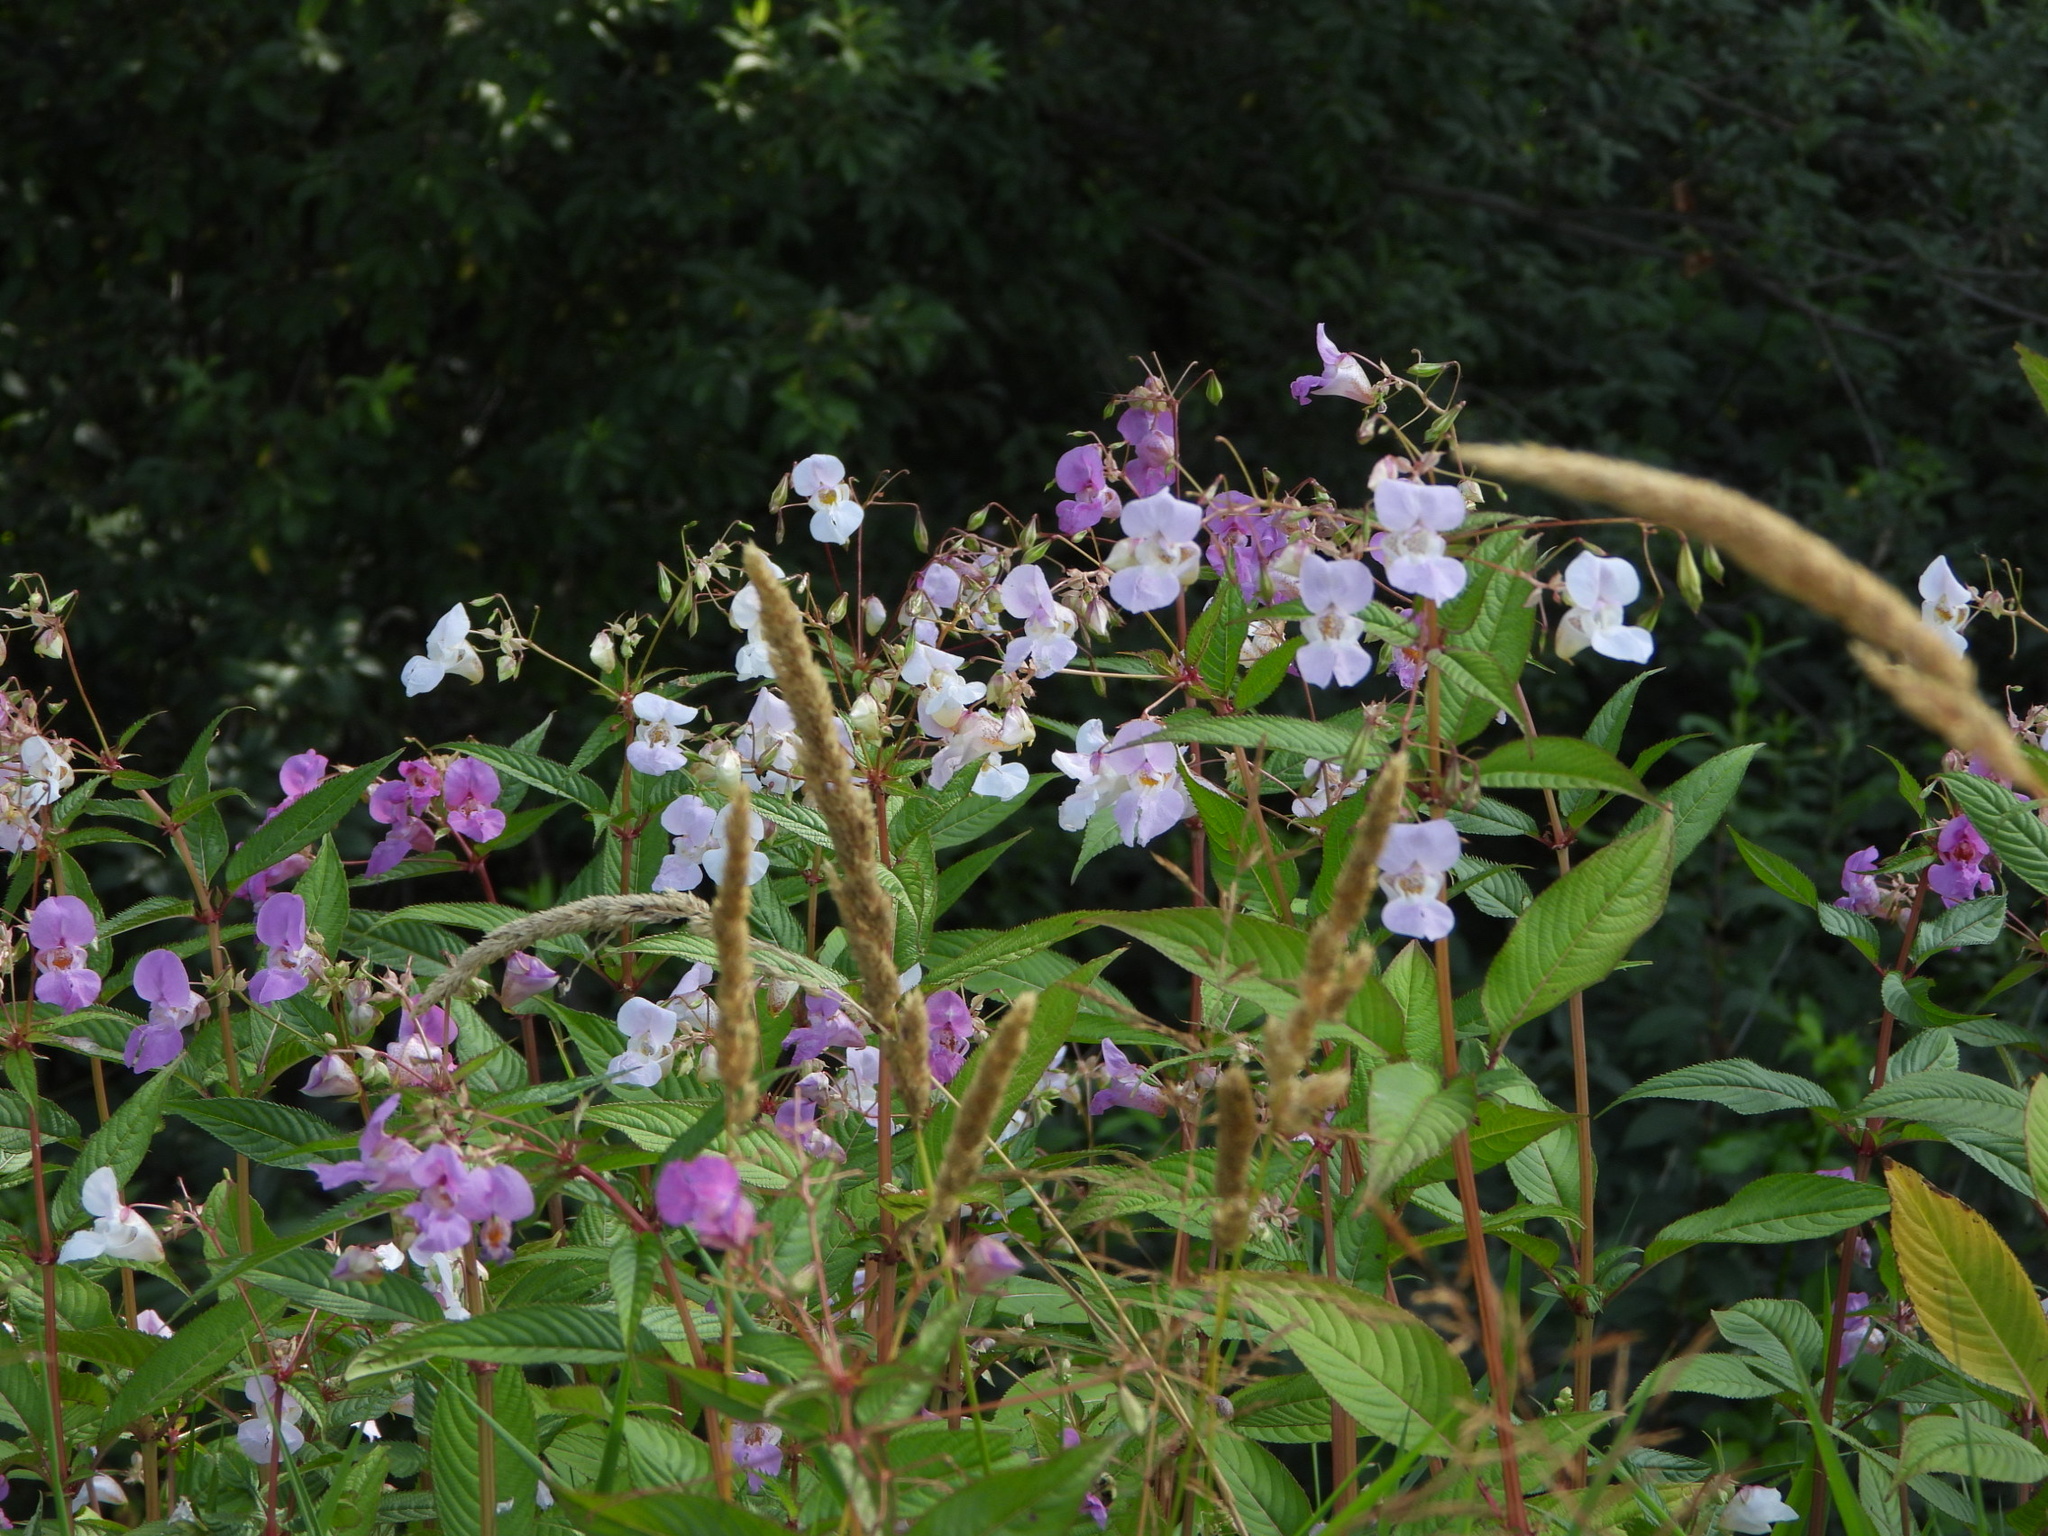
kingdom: Plantae
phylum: Tracheophyta
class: Magnoliopsida
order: Ericales
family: Balsaminaceae
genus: Impatiens
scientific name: Impatiens glandulifera
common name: Himalayan balsam
